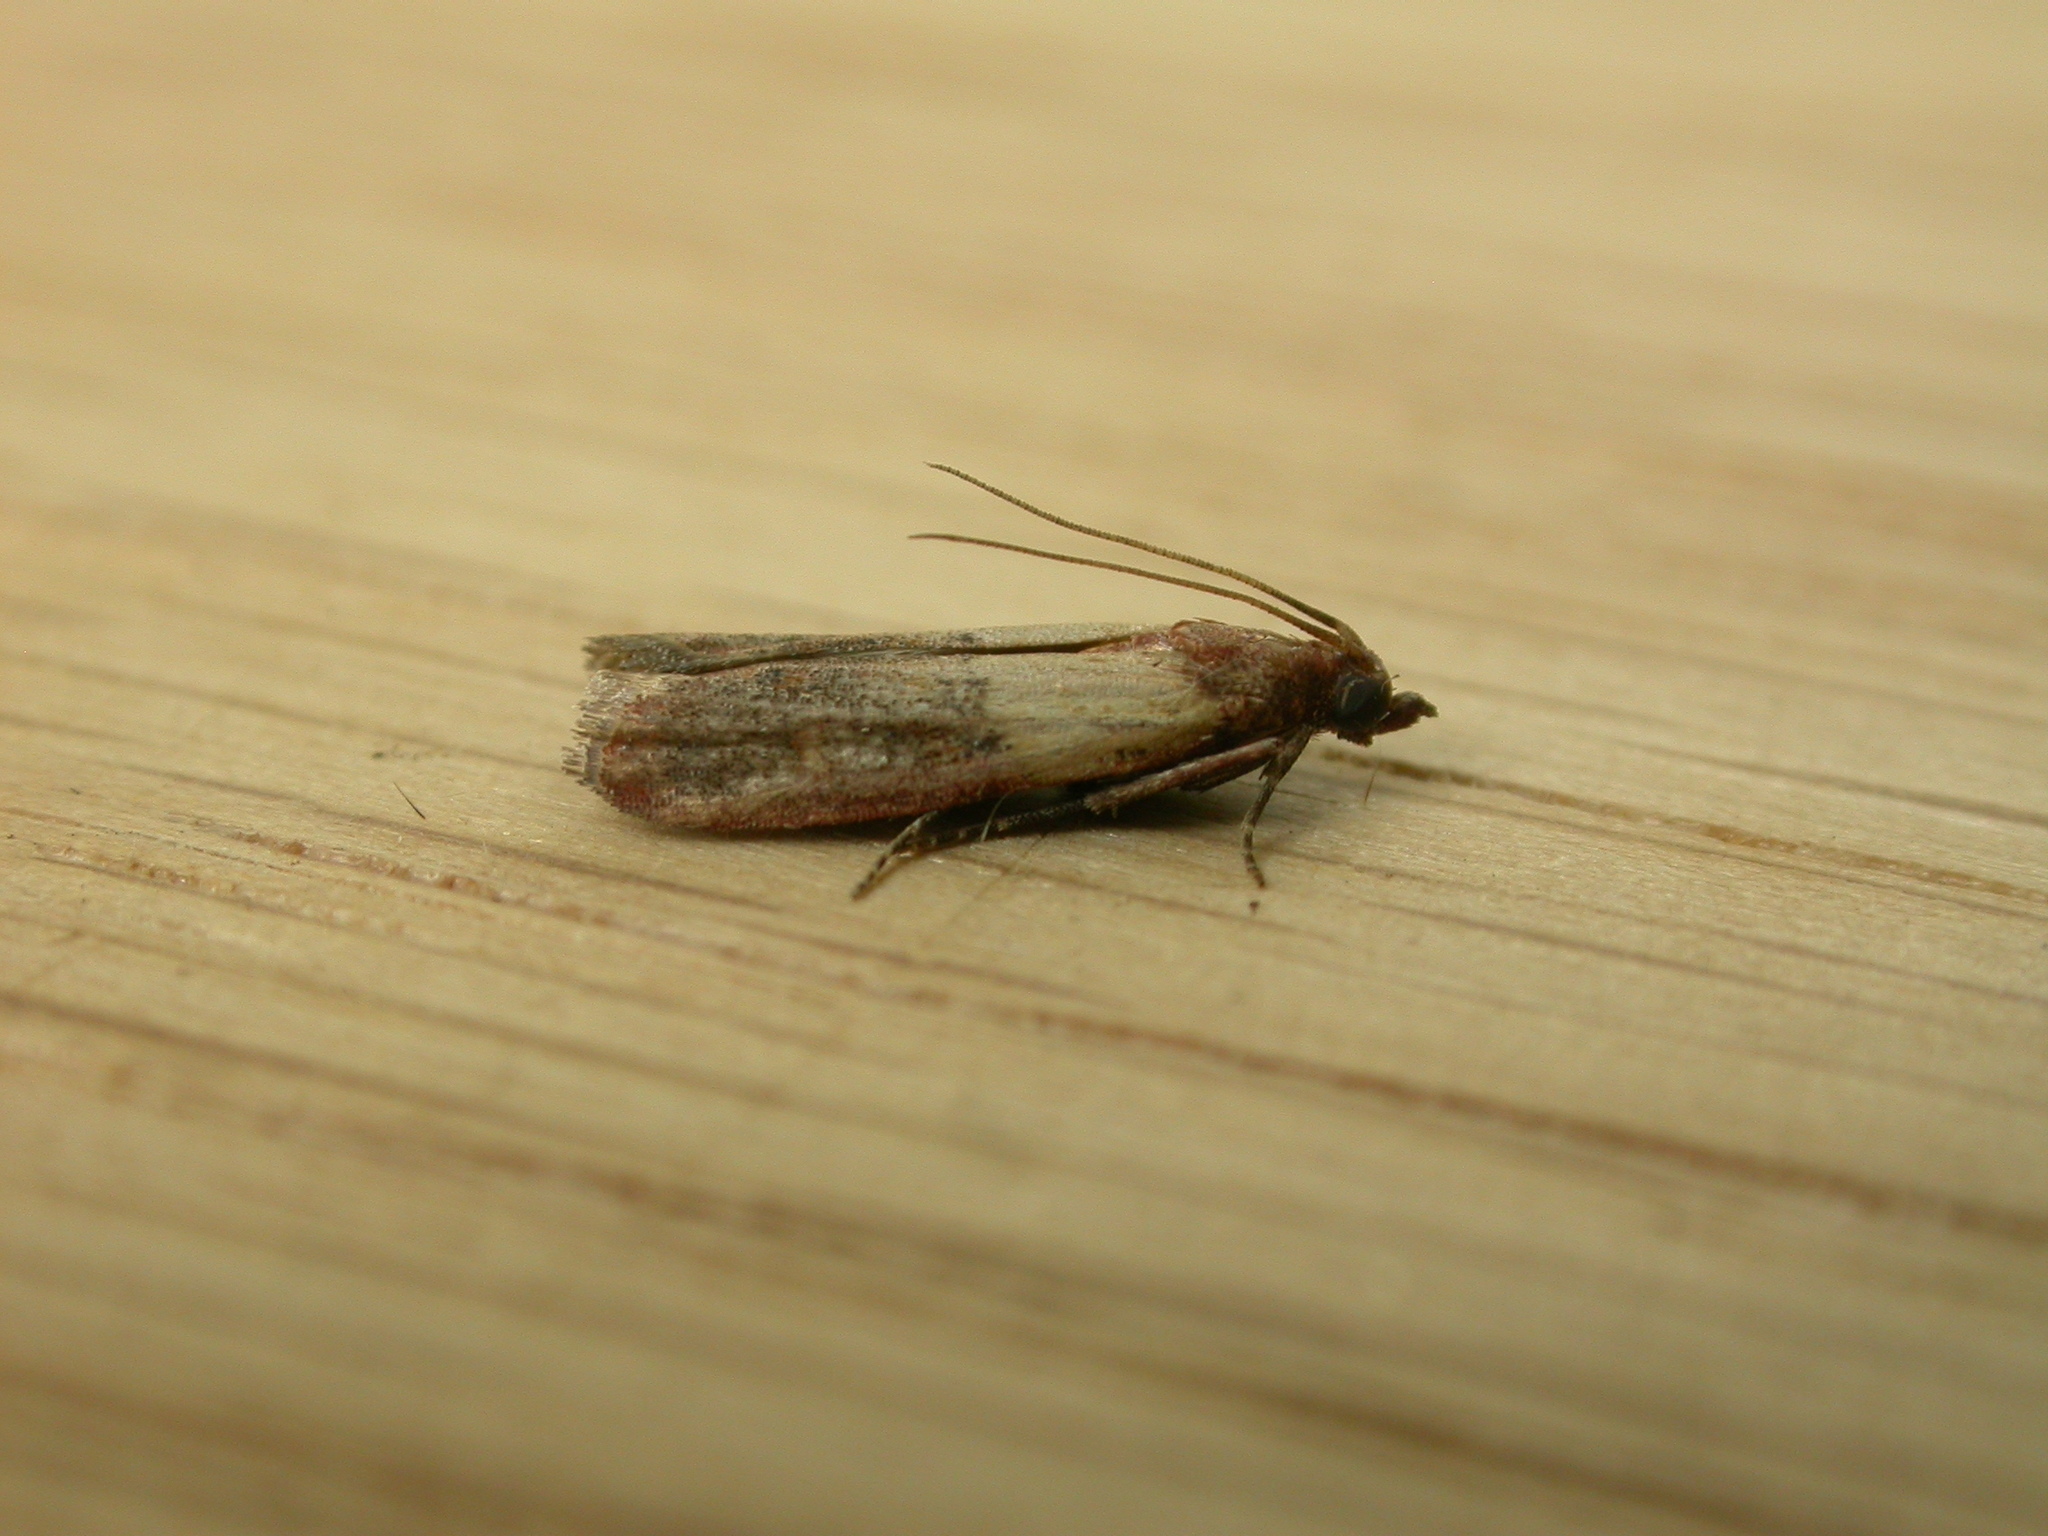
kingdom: Animalia
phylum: Arthropoda
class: Insecta
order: Lepidoptera
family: Pyralidae
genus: Plodia
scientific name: Plodia interpunctella
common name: Indian meal moth
